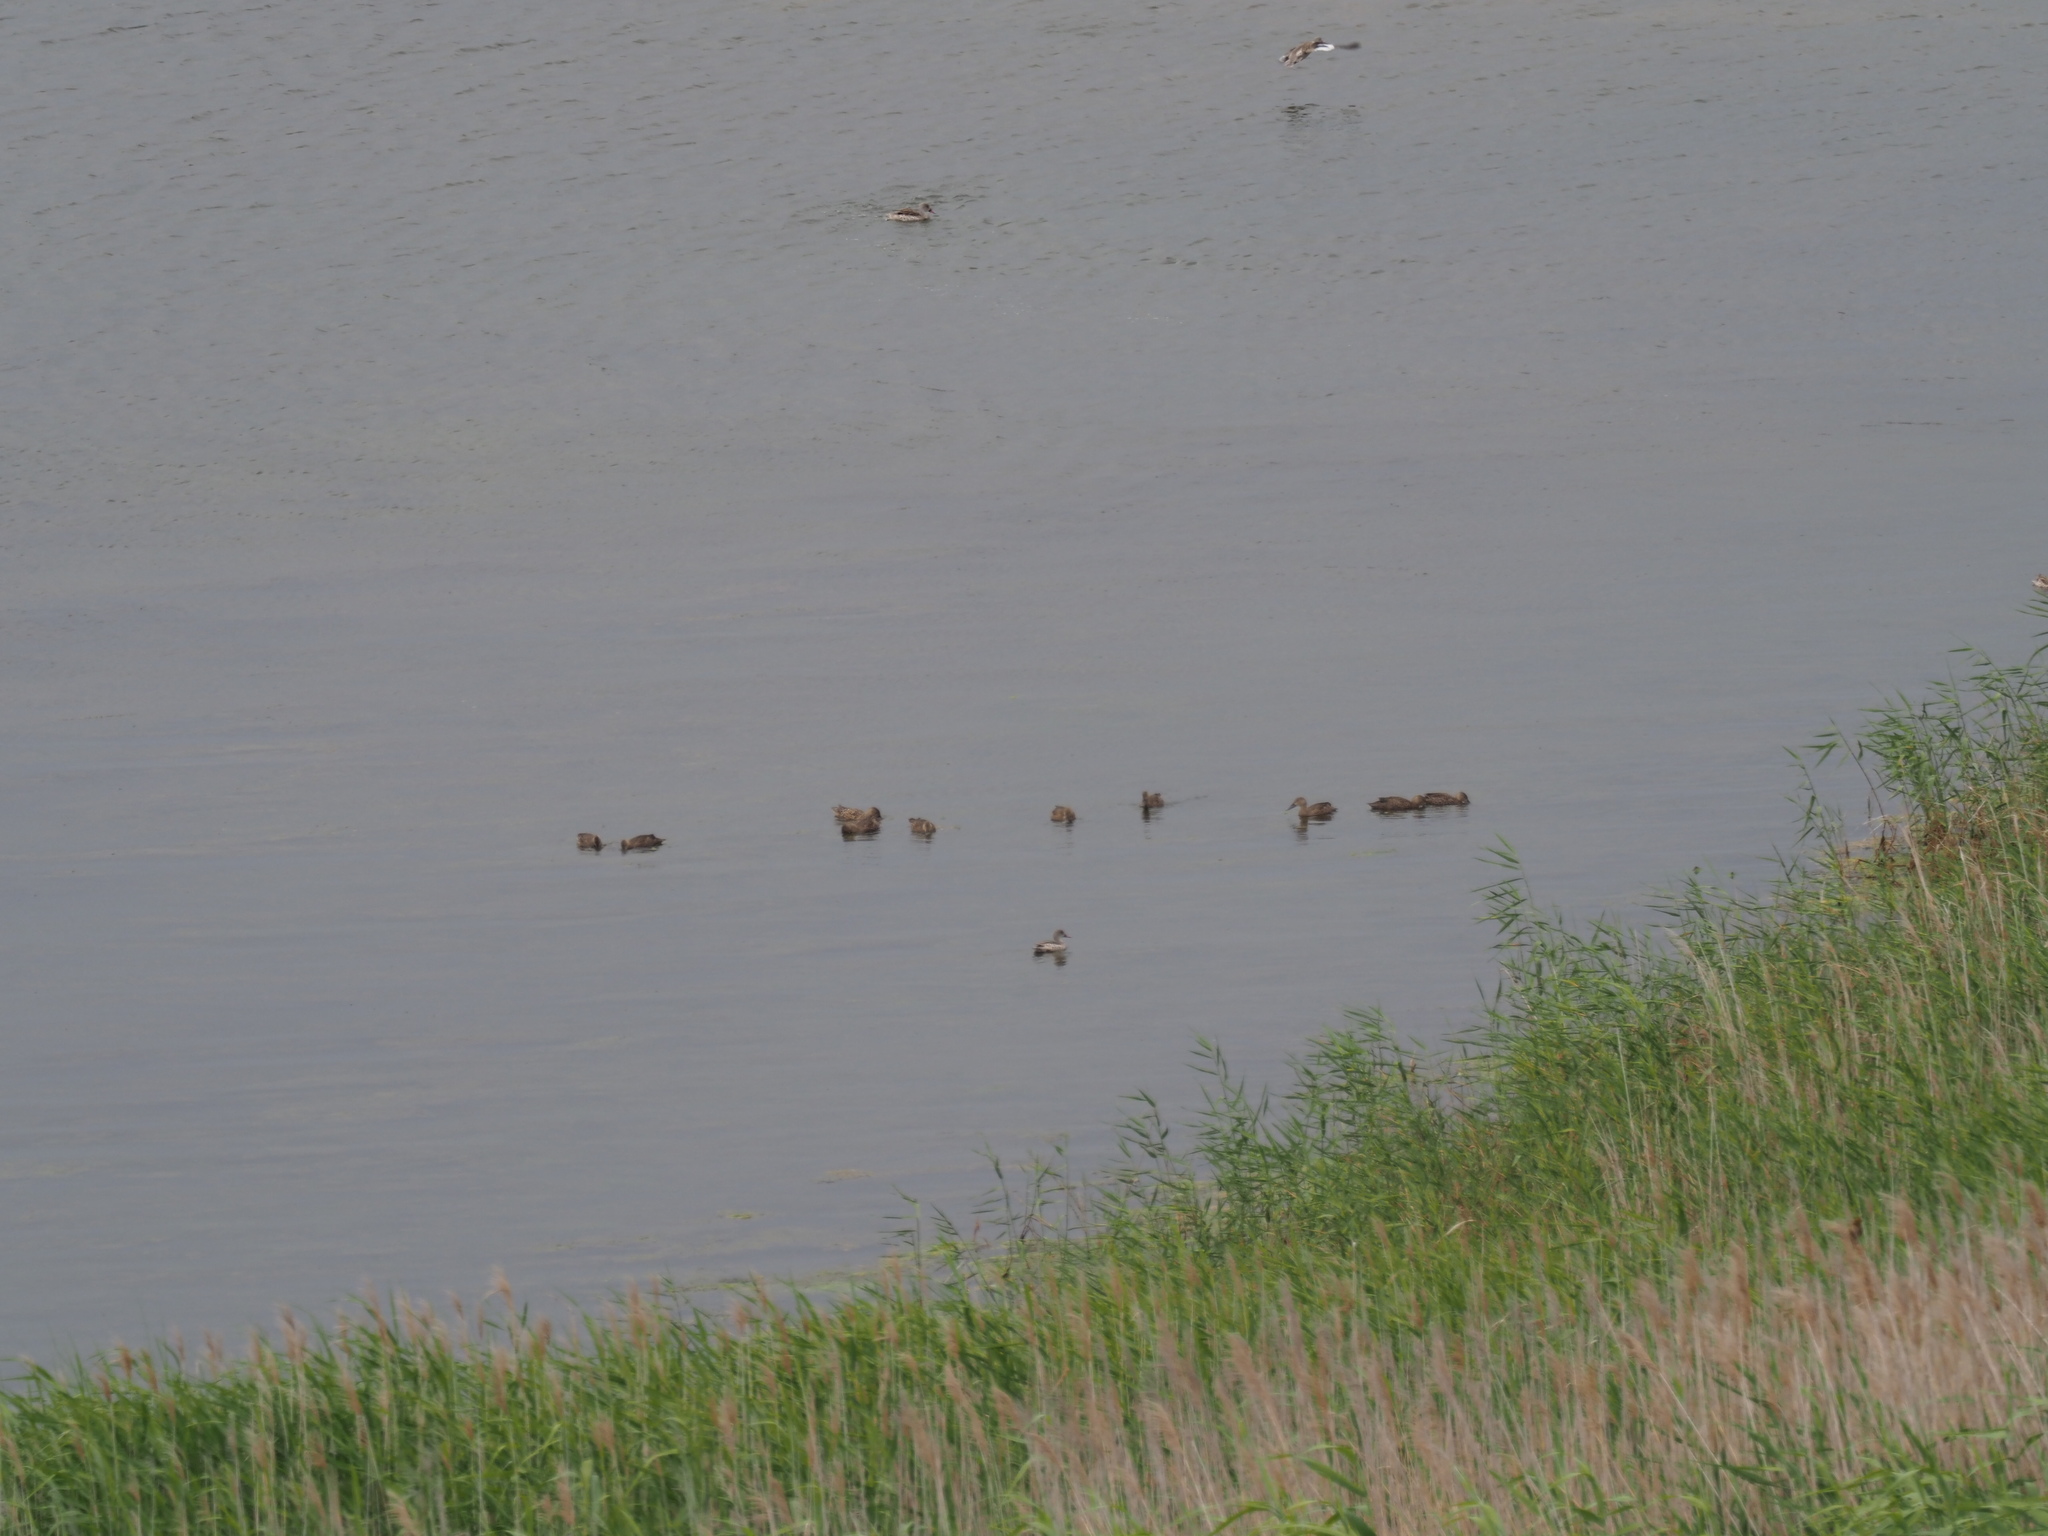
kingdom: Animalia
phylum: Chordata
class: Aves
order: Anseriformes
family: Anatidae
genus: Spatula
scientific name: Spatula smithii
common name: Cape shoveler
